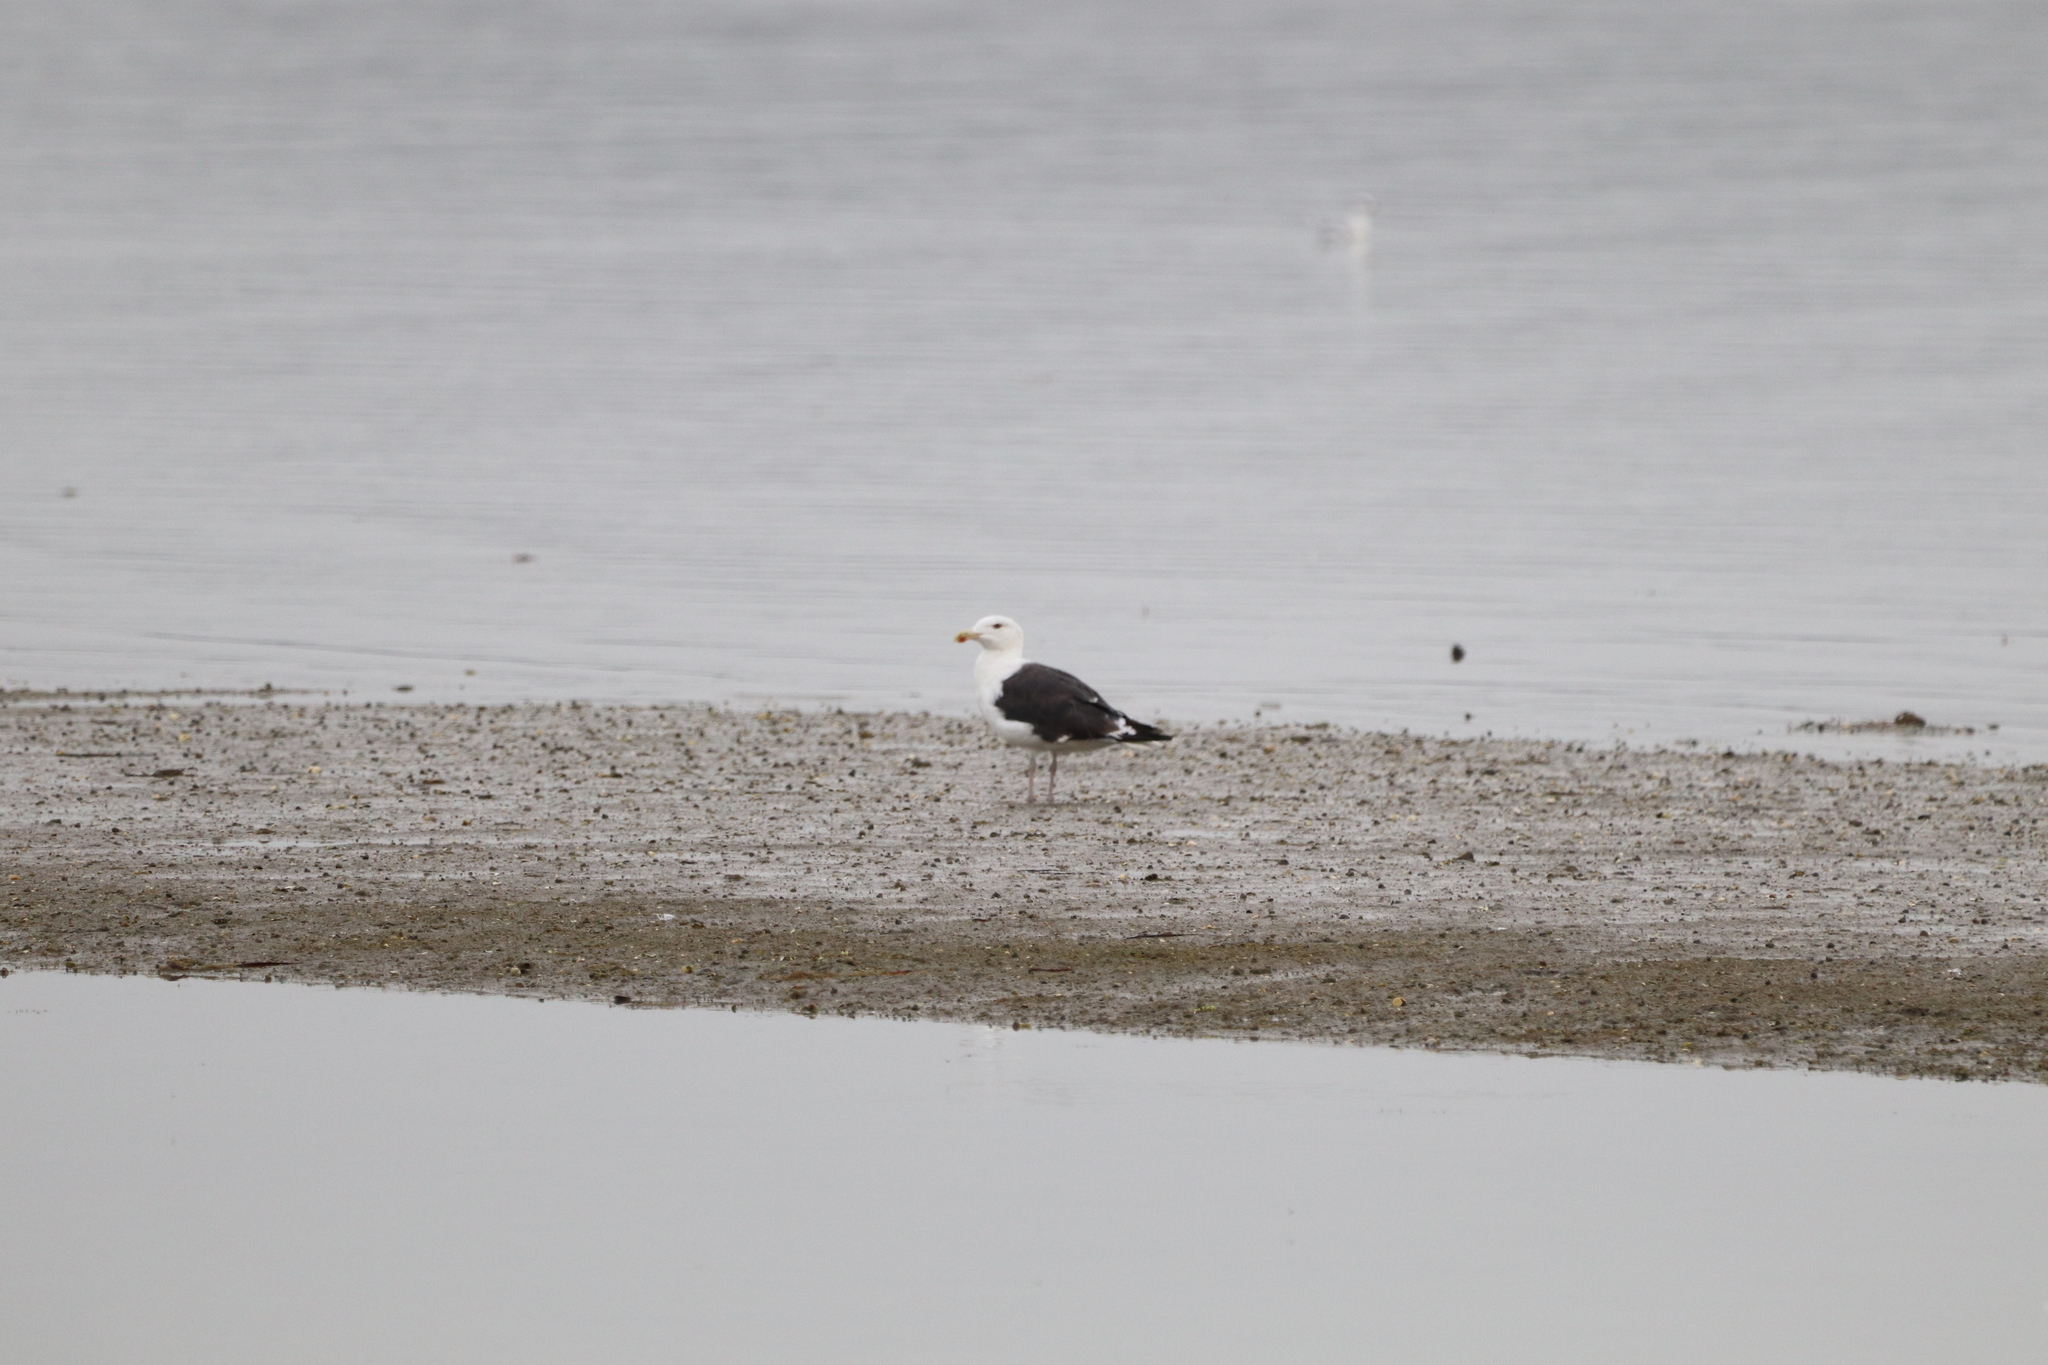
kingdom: Animalia
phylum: Chordata
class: Aves
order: Charadriiformes
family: Laridae
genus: Larus
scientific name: Larus marinus
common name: Great black-backed gull
